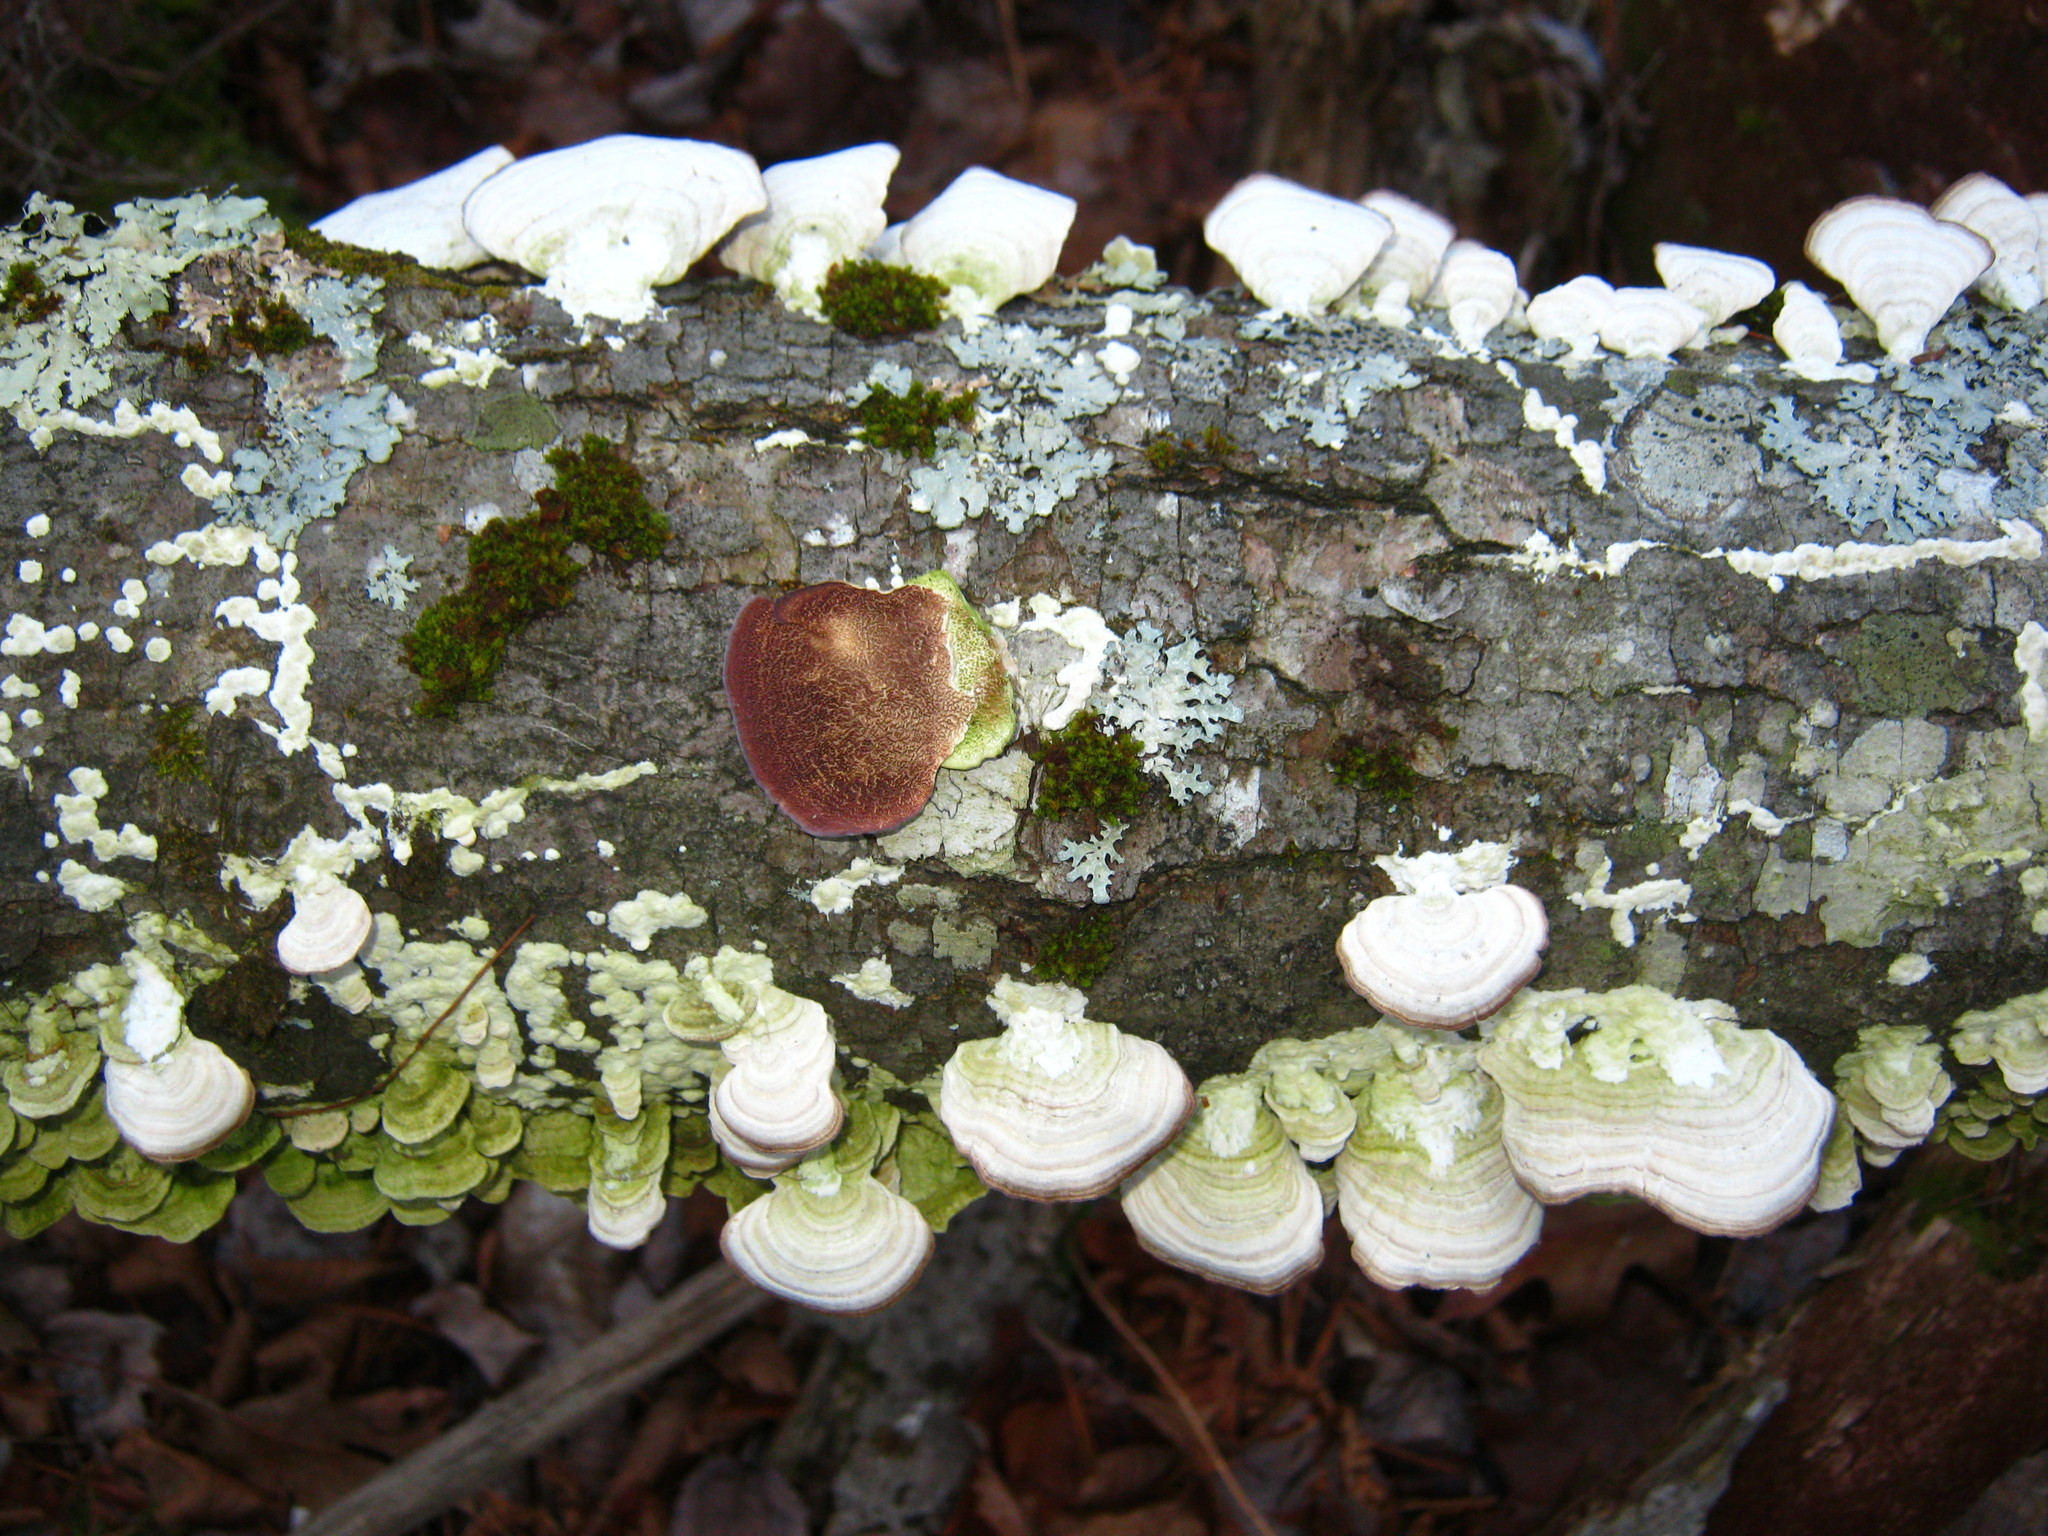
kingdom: Fungi
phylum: Basidiomycota
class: Agaricomycetes
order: Hymenochaetales
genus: Trichaptum
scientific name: Trichaptum biforme
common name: Violet-toothed polypore
